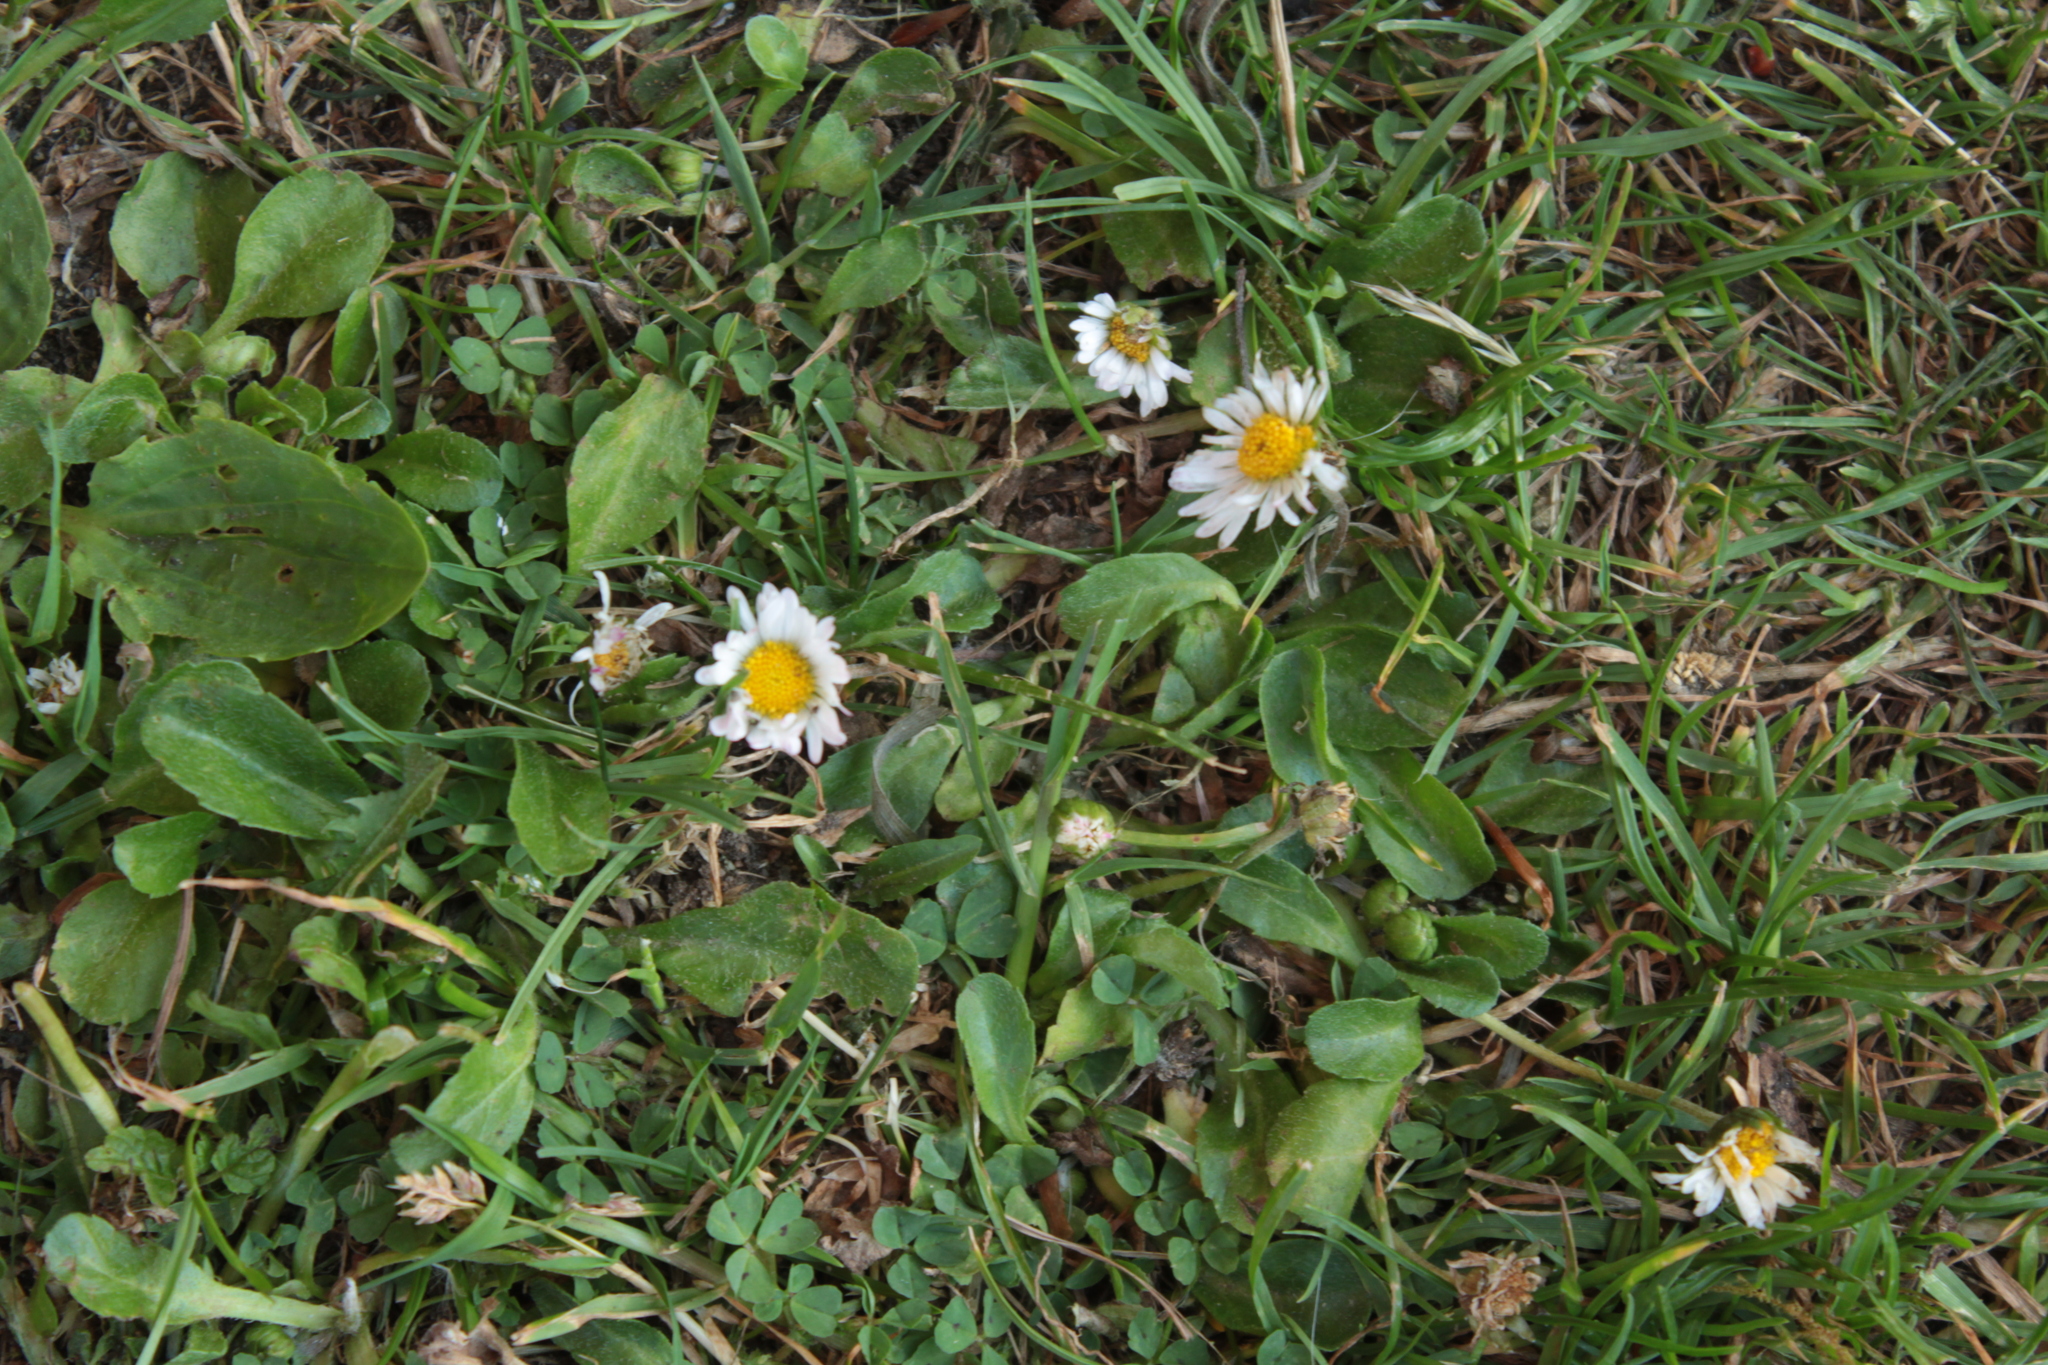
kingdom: Plantae
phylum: Tracheophyta
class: Magnoliopsida
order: Asterales
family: Asteraceae
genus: Bellis
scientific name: Bellis perennis
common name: Lawndaisy
